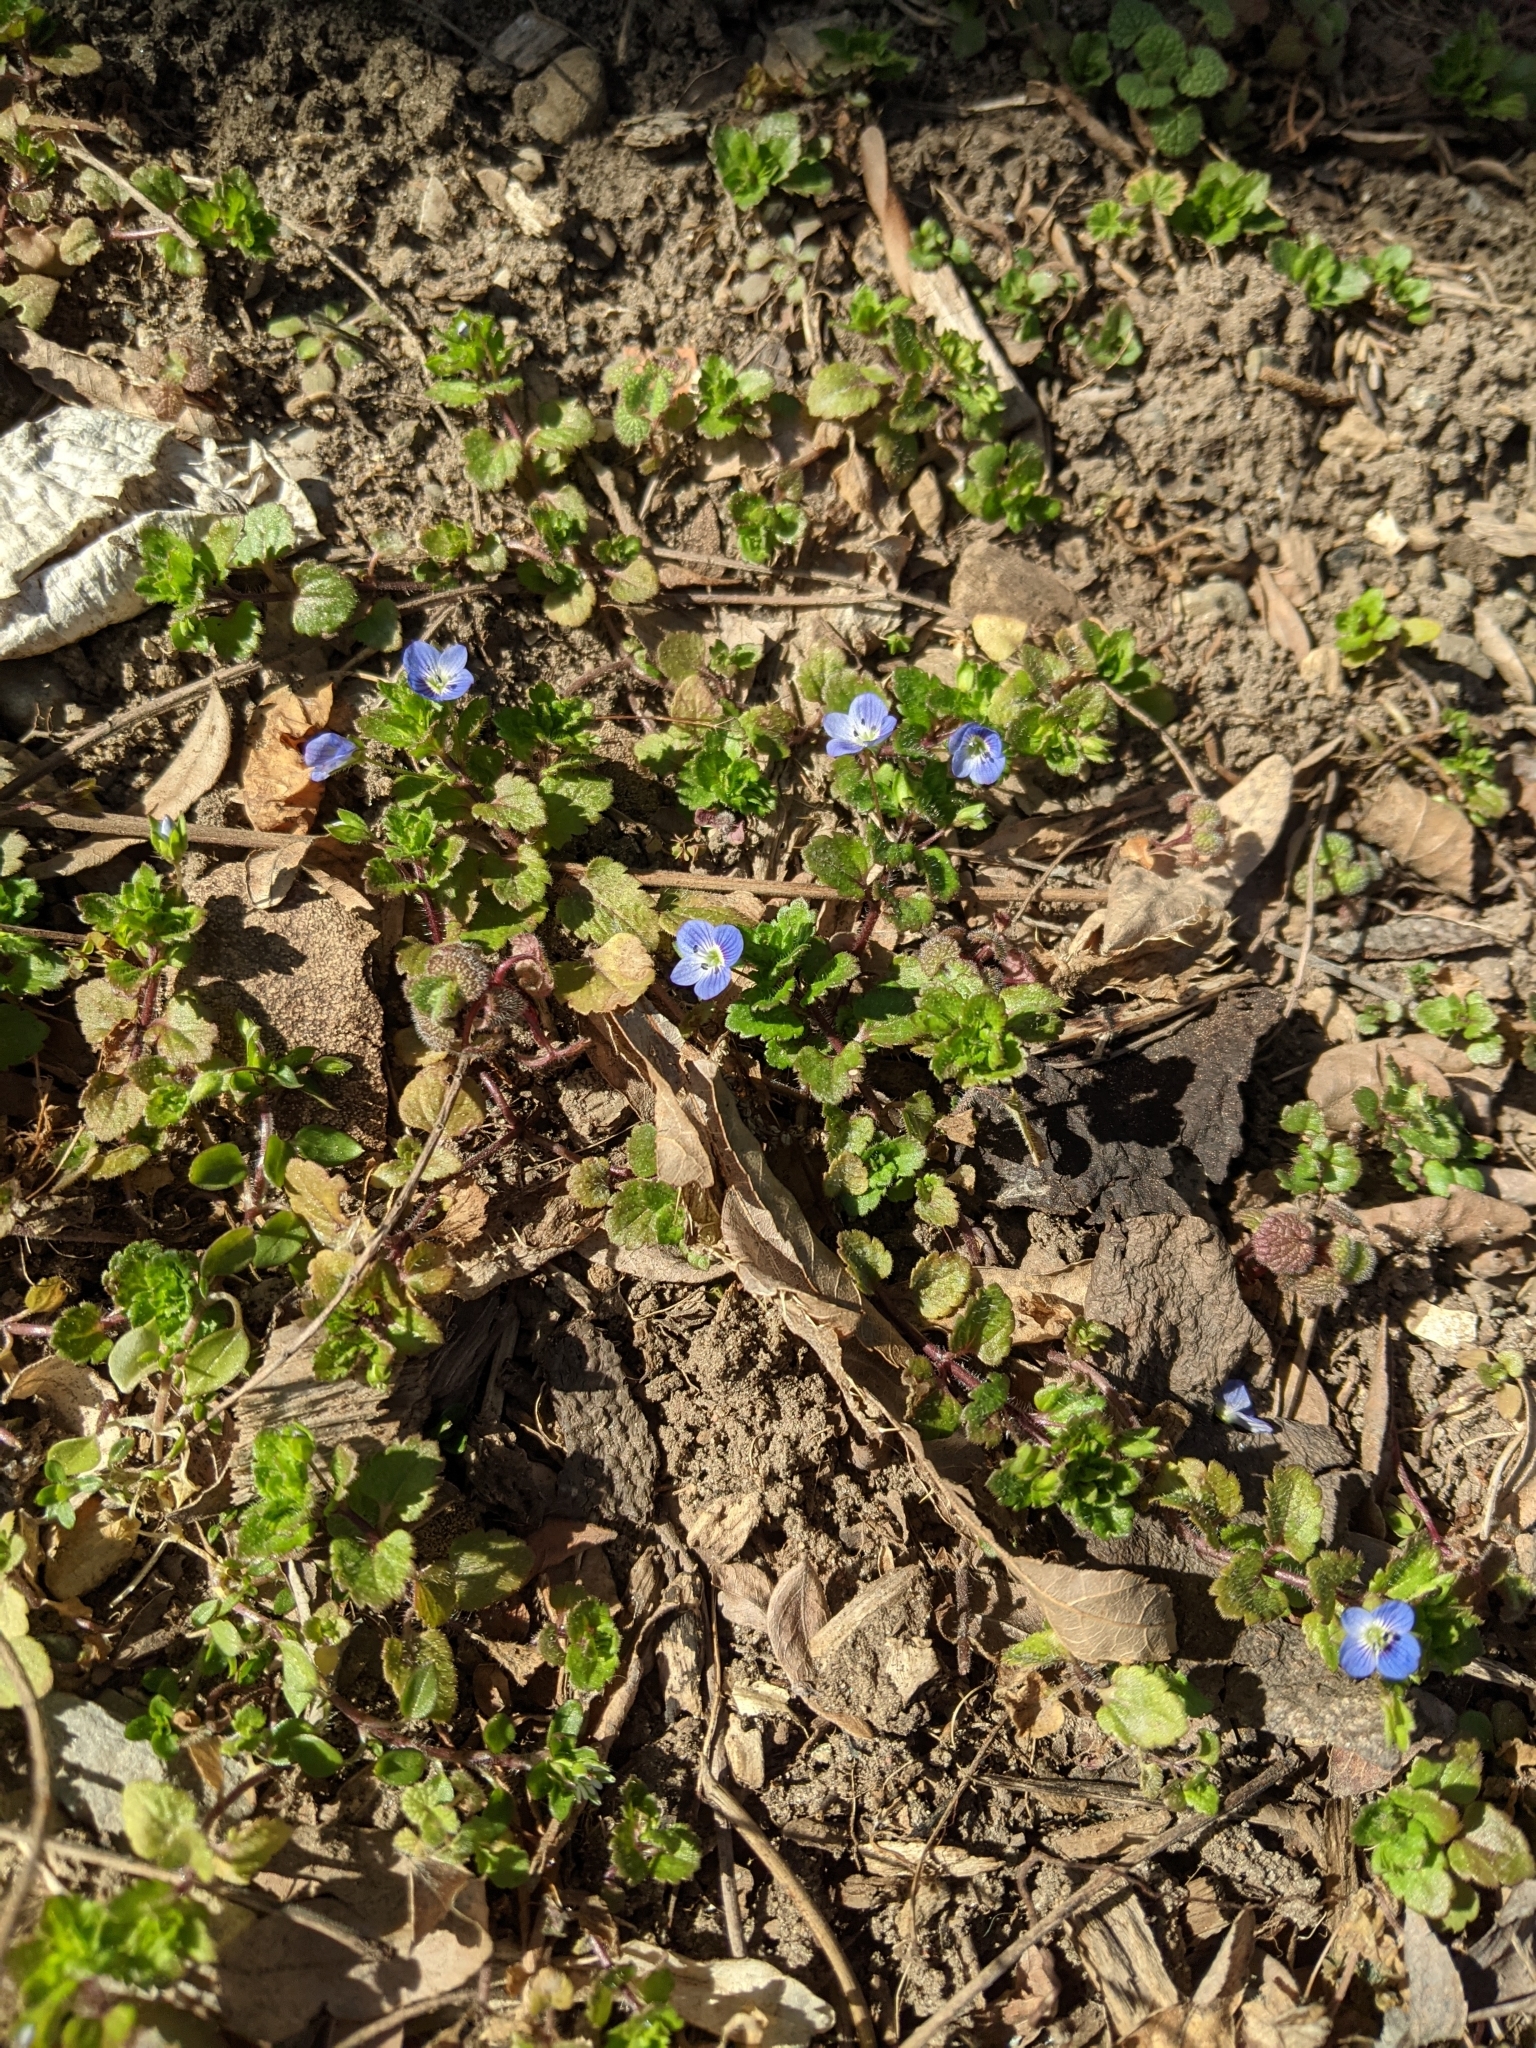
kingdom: Plantae
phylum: Tracheophyta
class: Magnoliopsida
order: Lamiales
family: Plantaginaceae
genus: Veronica
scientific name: Veronica persica
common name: Common field-speedwell
